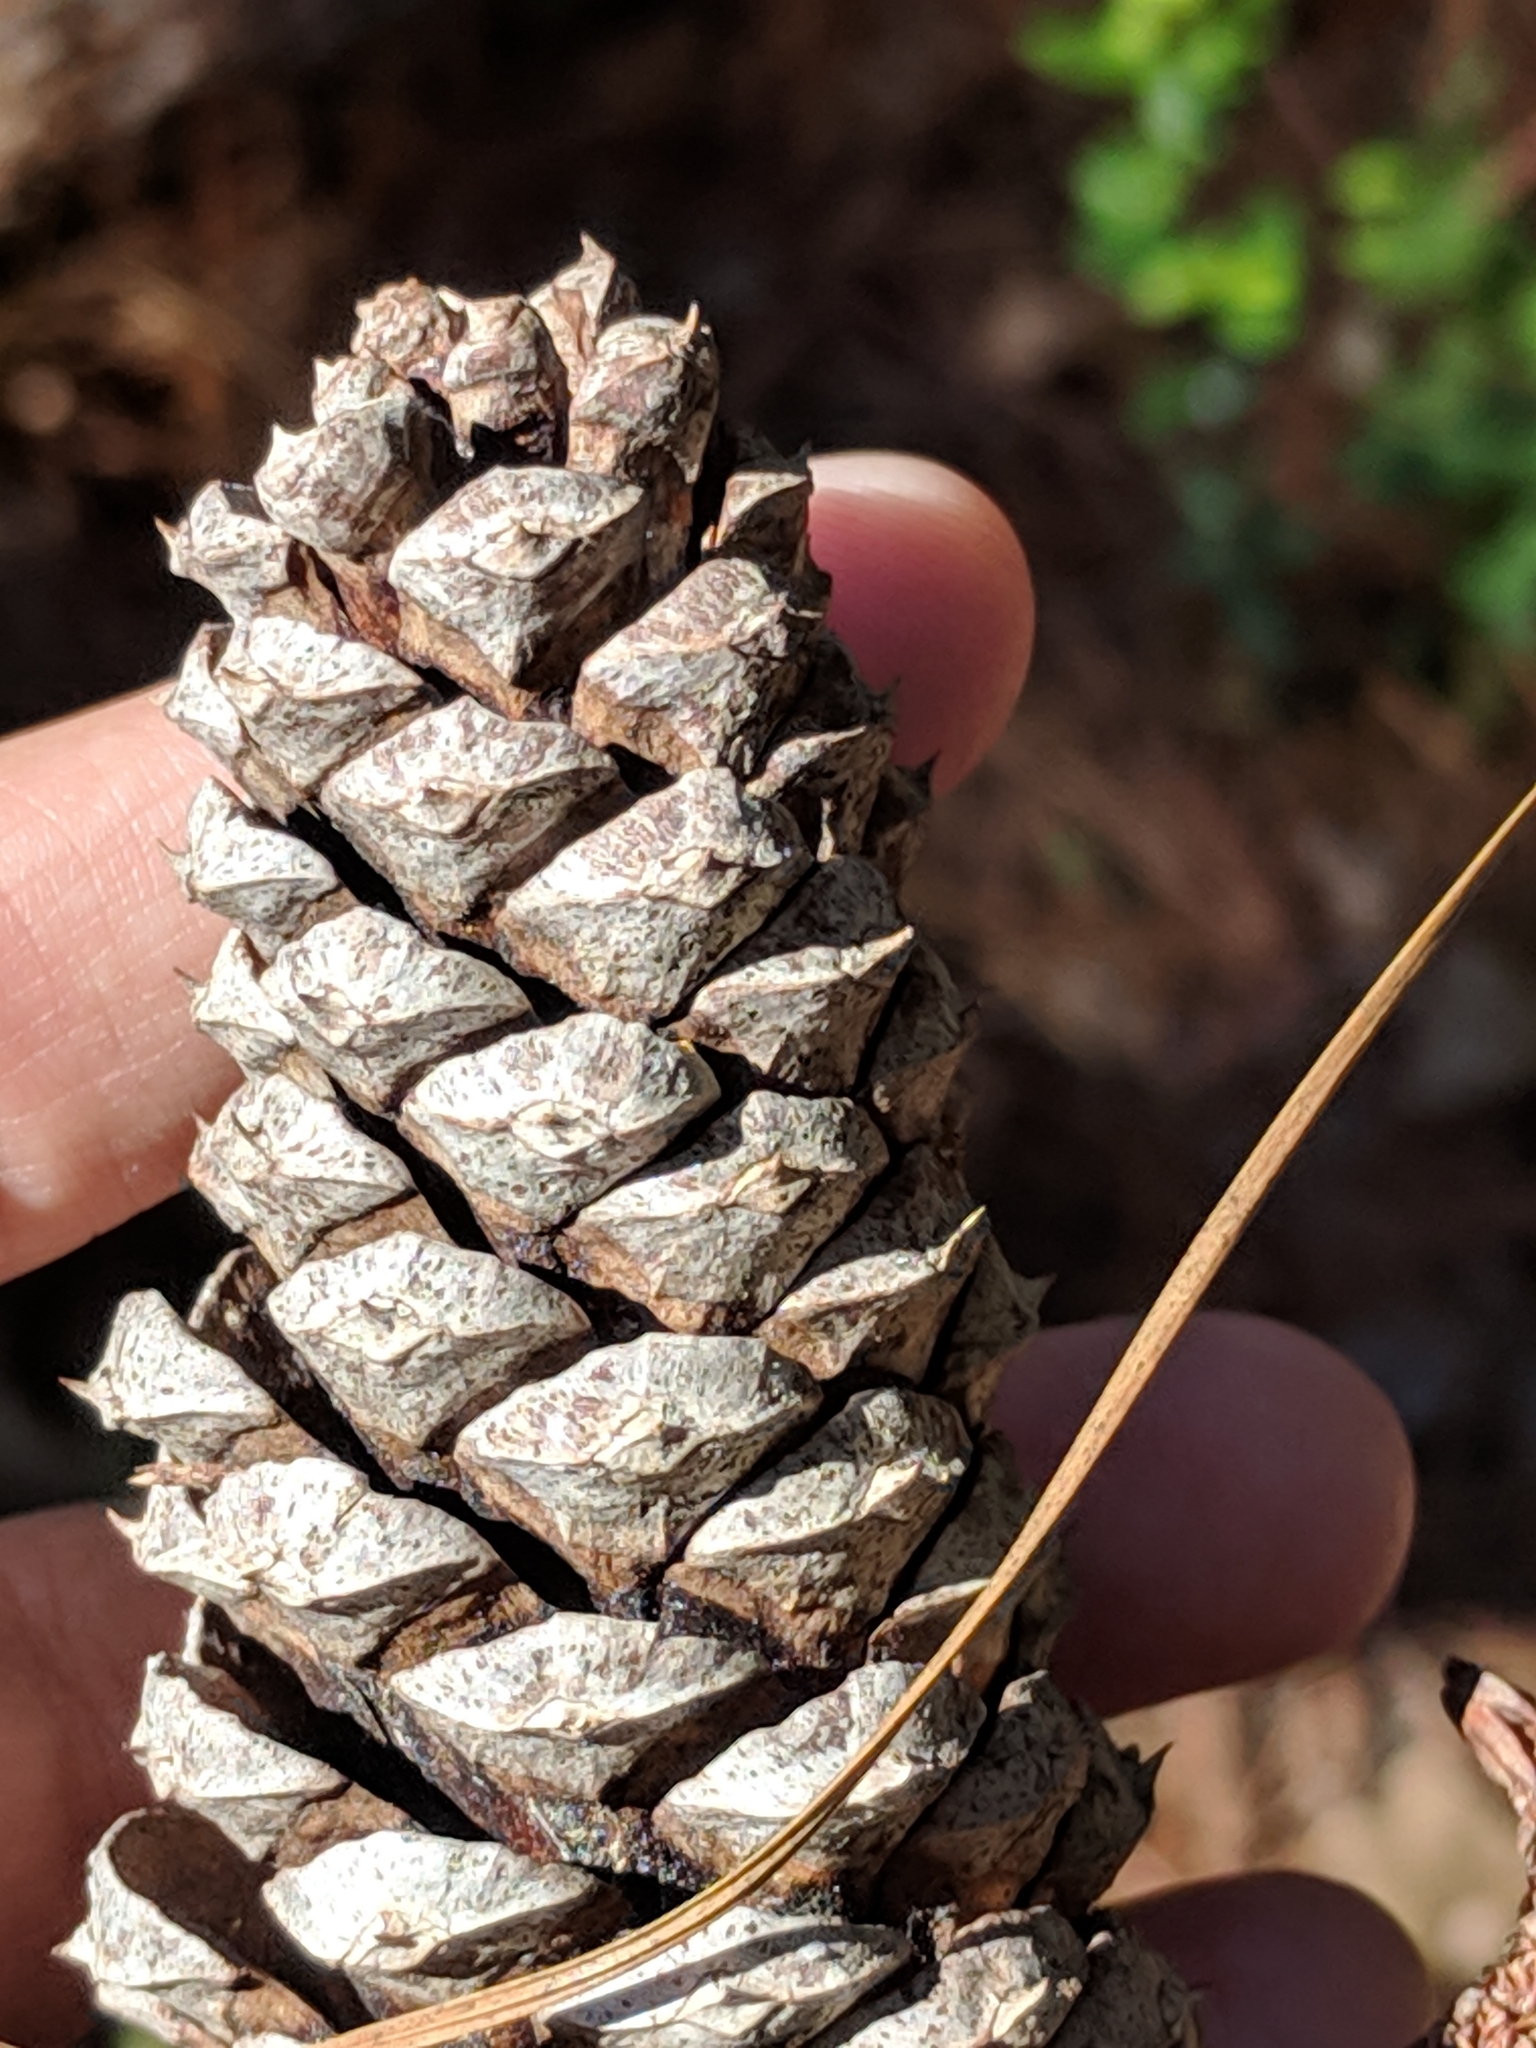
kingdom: Plantae
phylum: Tracheophyta
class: Pinopsida
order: Pinales
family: Pinaceae
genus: Pinus
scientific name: Pinus taeda
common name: Loblolly pine
